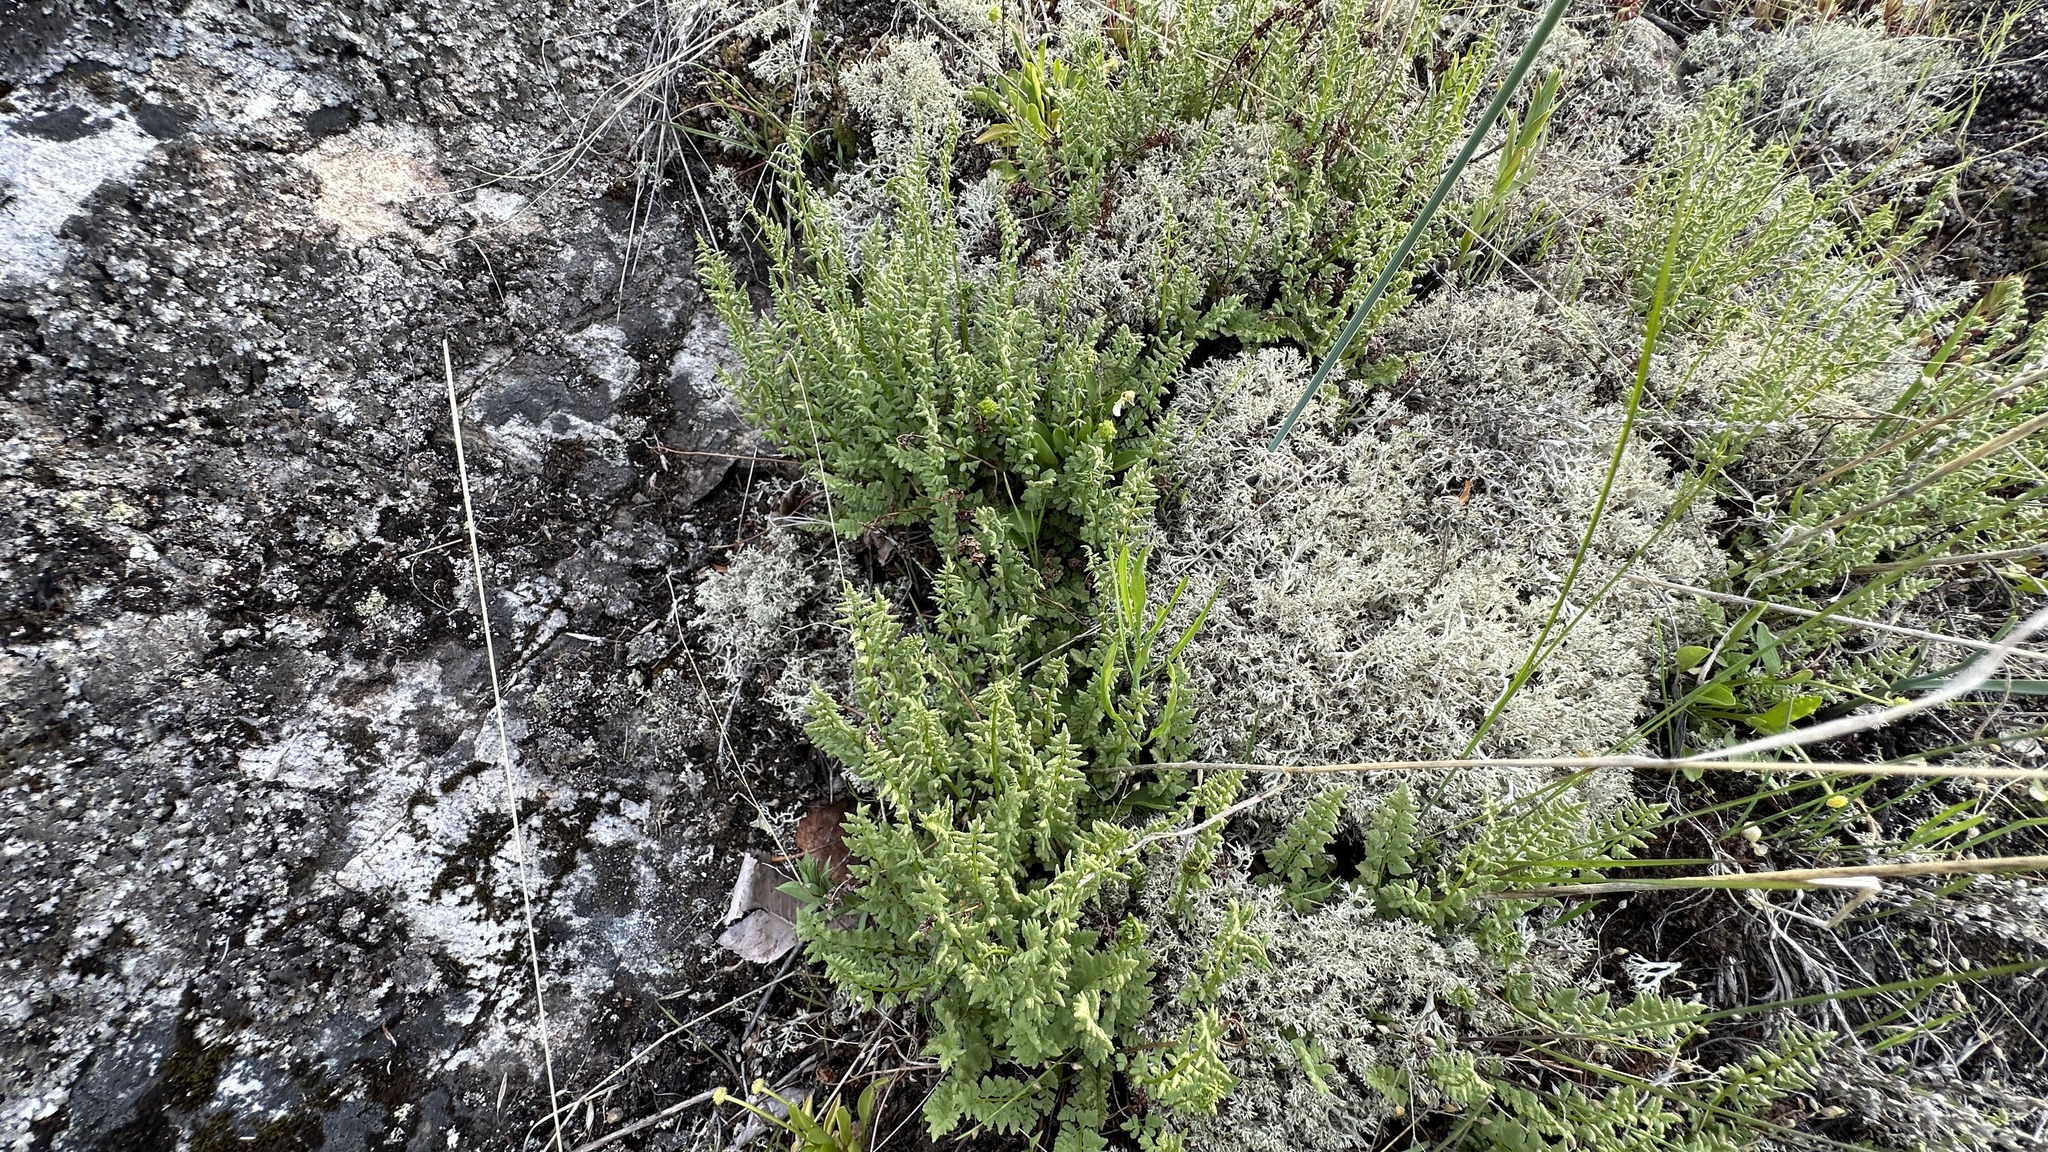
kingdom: Plantae
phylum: Tracheophyta
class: Polypodiopsida
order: Polypodiales
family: Woodsiaceae
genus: Physematium
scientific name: Physematium oreganum
